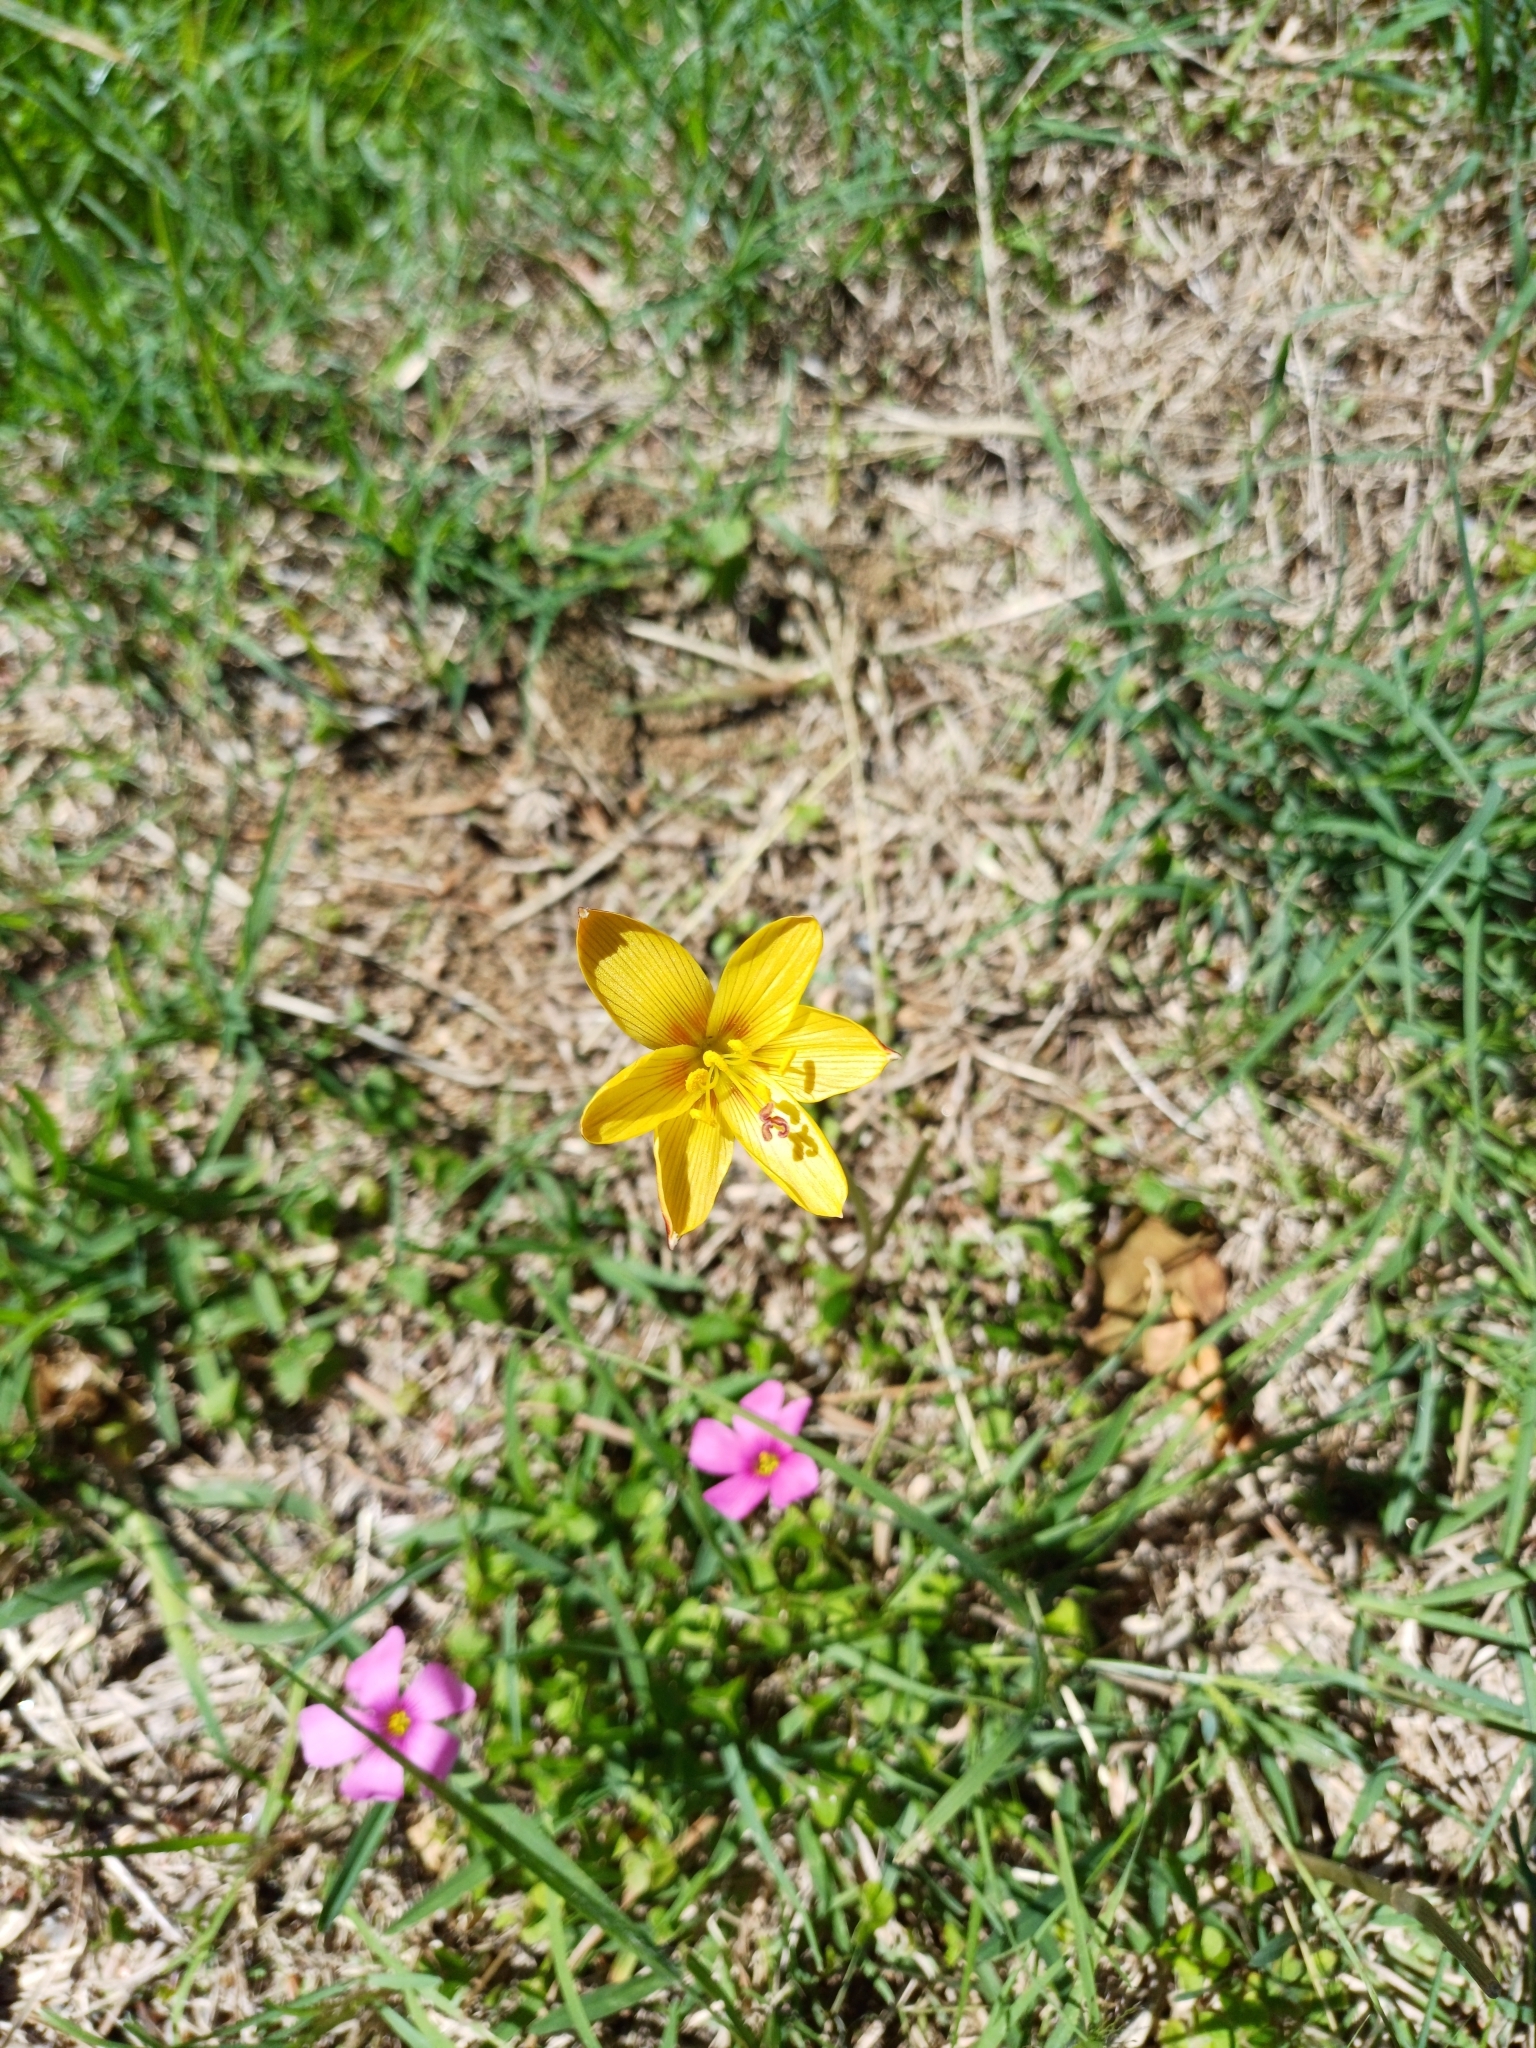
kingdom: Plantae
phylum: Tracheophyta
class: Liliopsida
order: Asparagales
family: Amaryllidaceae
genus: Zephyranthes
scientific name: Zephyranthes tubispatha
